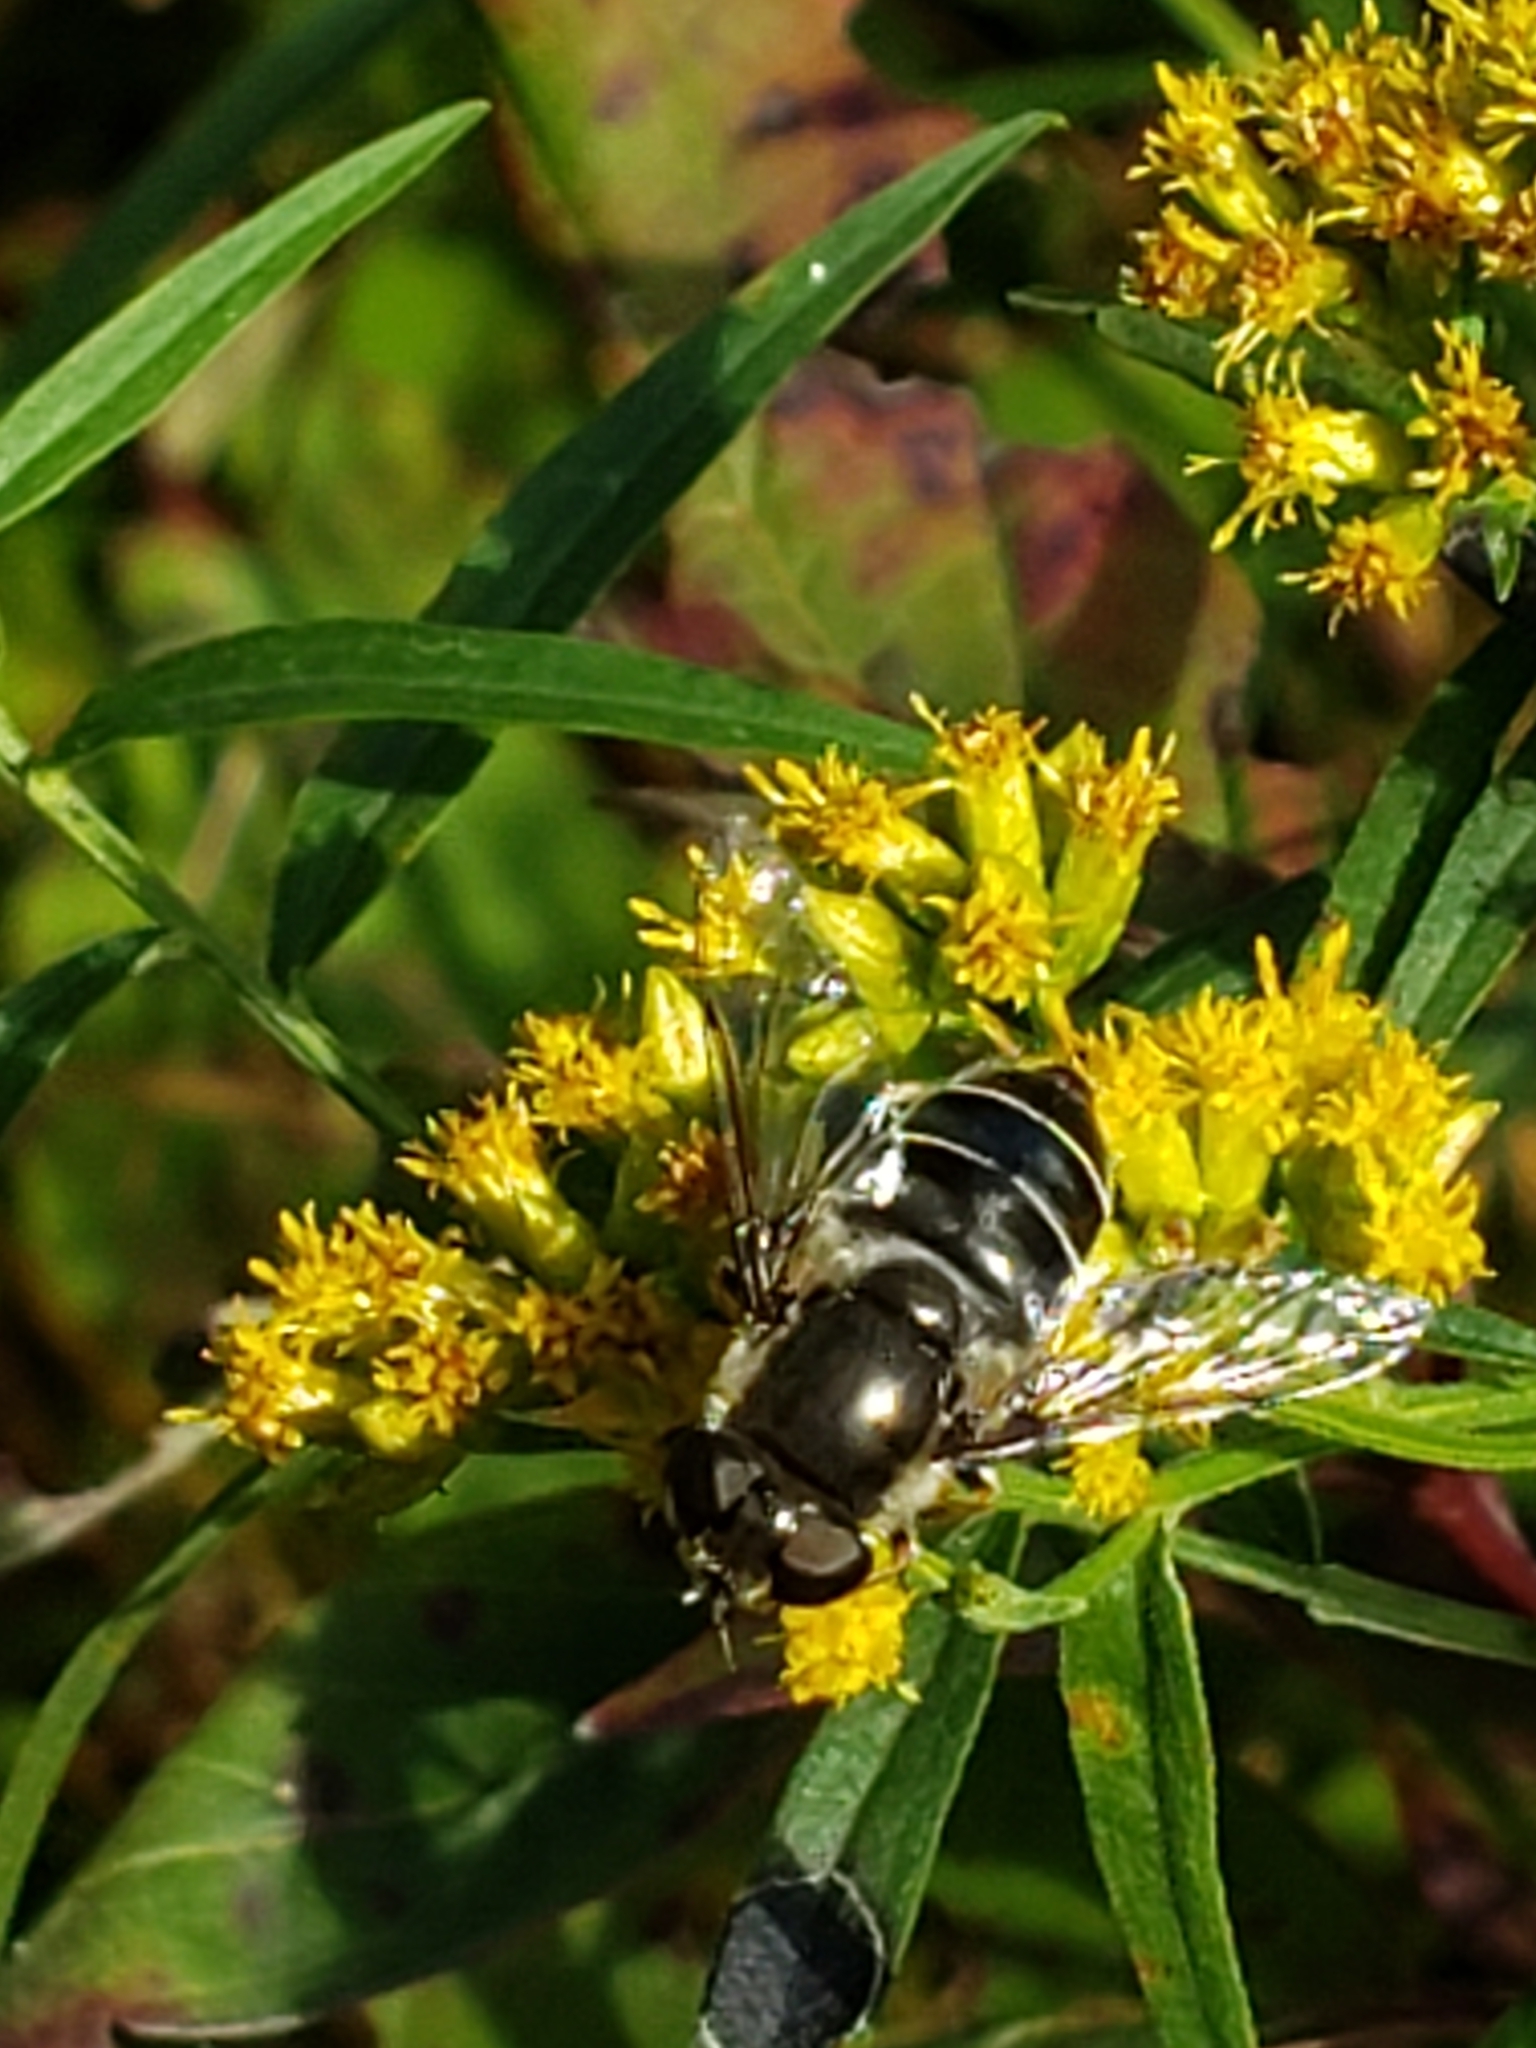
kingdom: Animalia
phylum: Arthropoda
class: Insecta
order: Diptera
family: Syrphidae
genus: Eristalis
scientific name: Eristalis dimidiata
